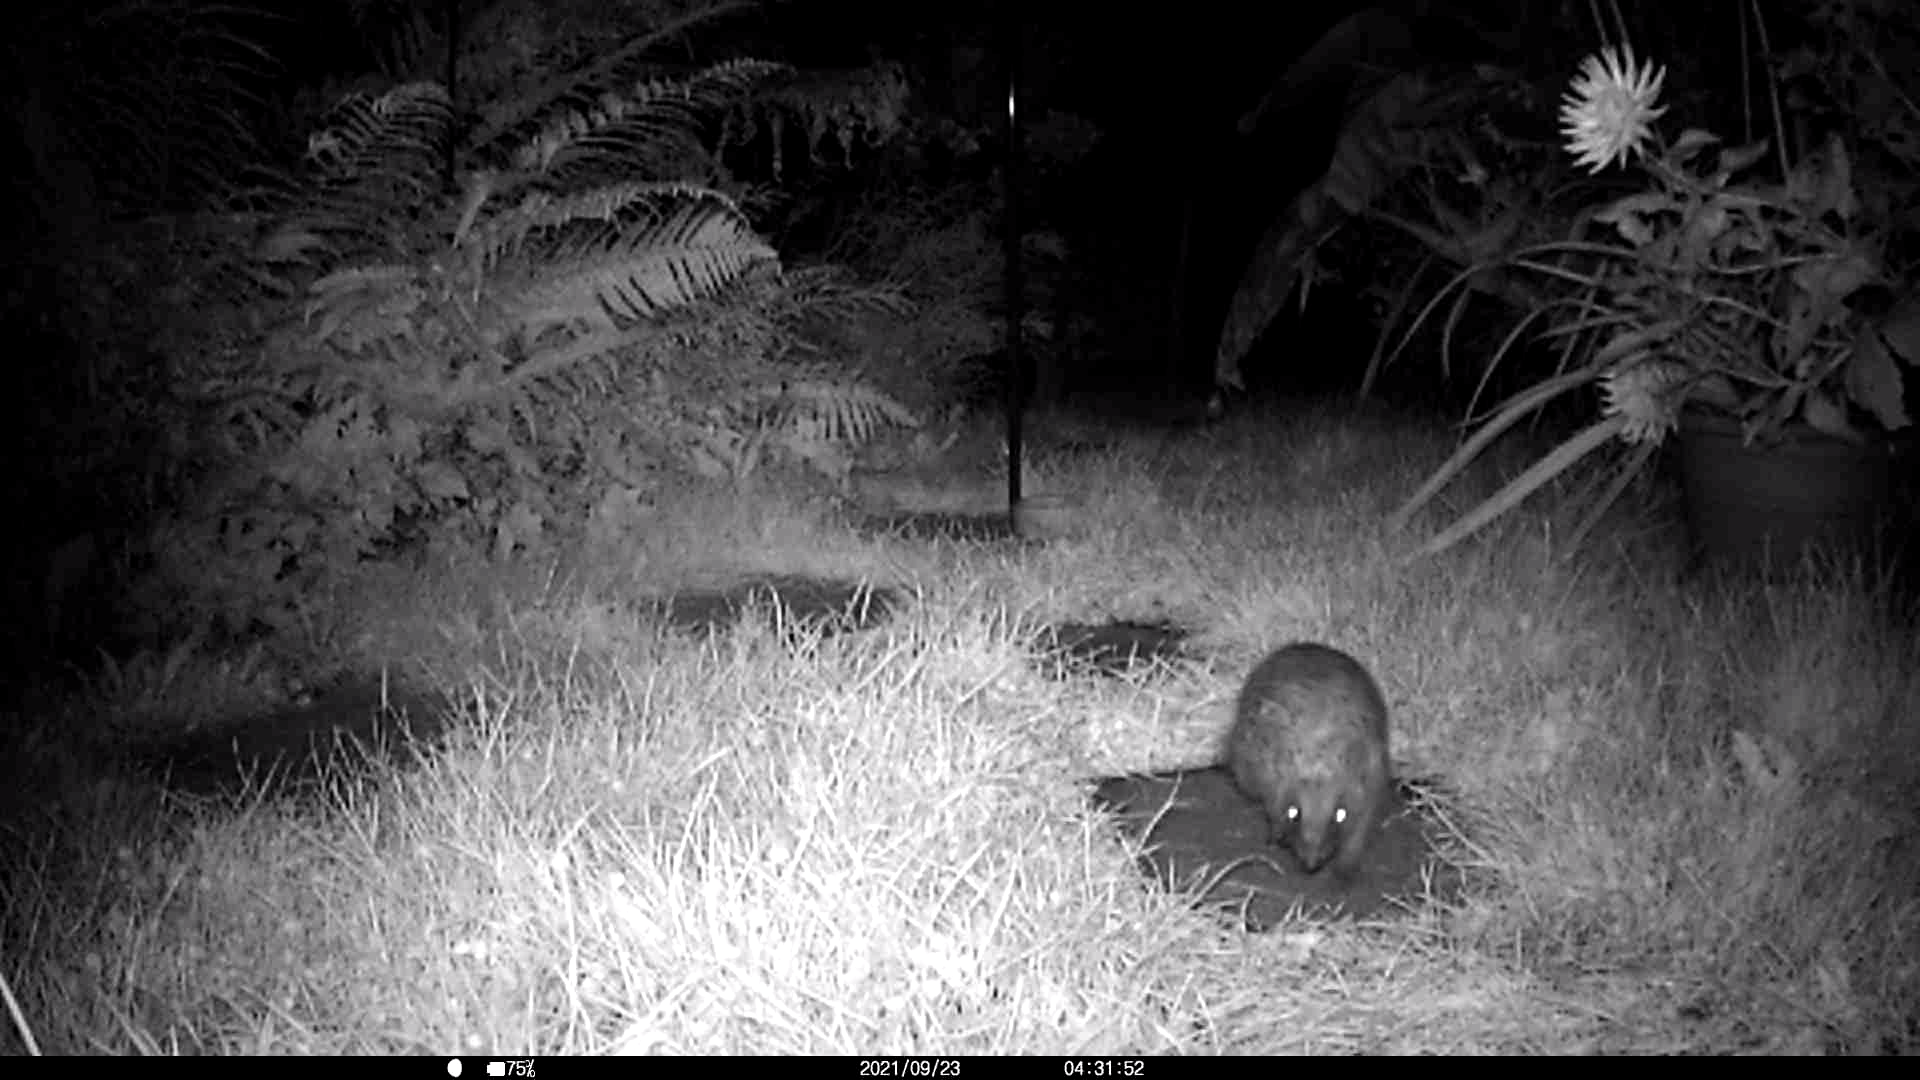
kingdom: Animalia
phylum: Chordata
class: Mammalia
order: Erinaceomorpha
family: Erinaceidae
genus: Erinaceus
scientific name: Erinaceus europaeus
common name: West european hedgehog
